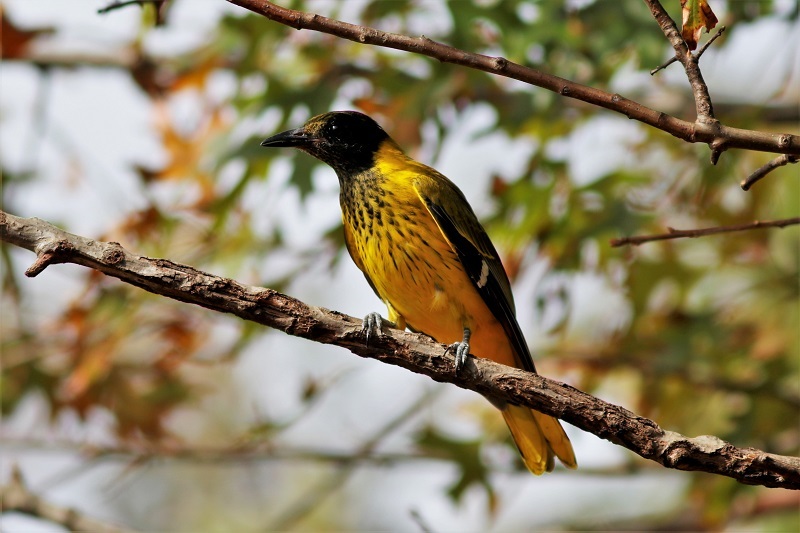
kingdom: Animalia
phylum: Chordata
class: Aves
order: Passeriformes
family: Oriolidae
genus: Oriolus
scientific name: Oriolus larvatus
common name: Black-headed oriole
